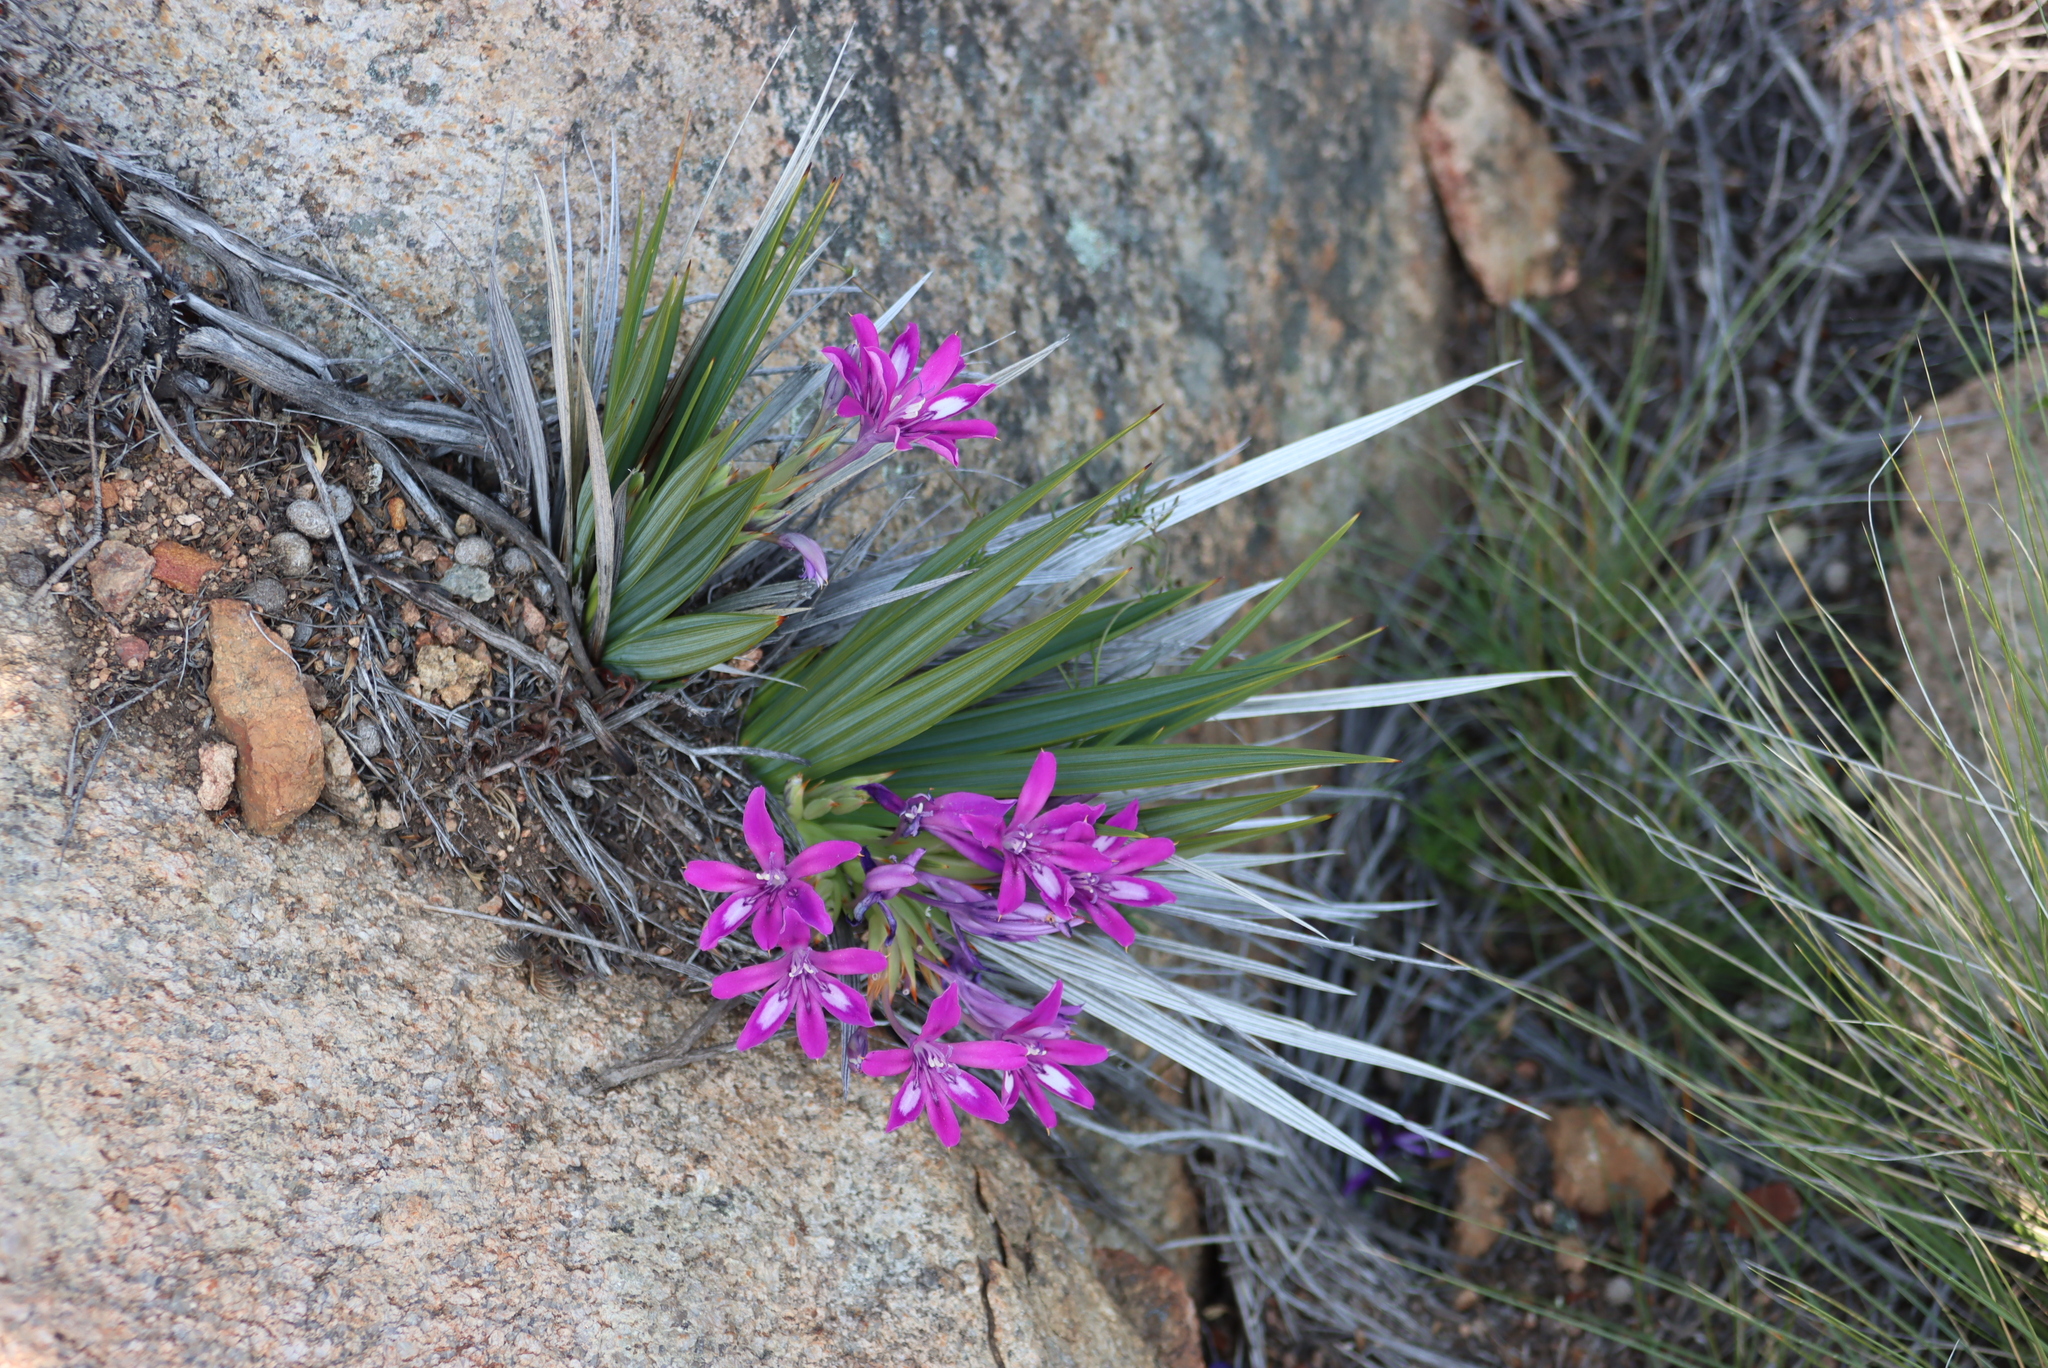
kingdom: Plantae
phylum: Tracheophyta
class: Liliopsida
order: Asparagales
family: Iridaceae
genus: Babiana
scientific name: Babiana dregei
